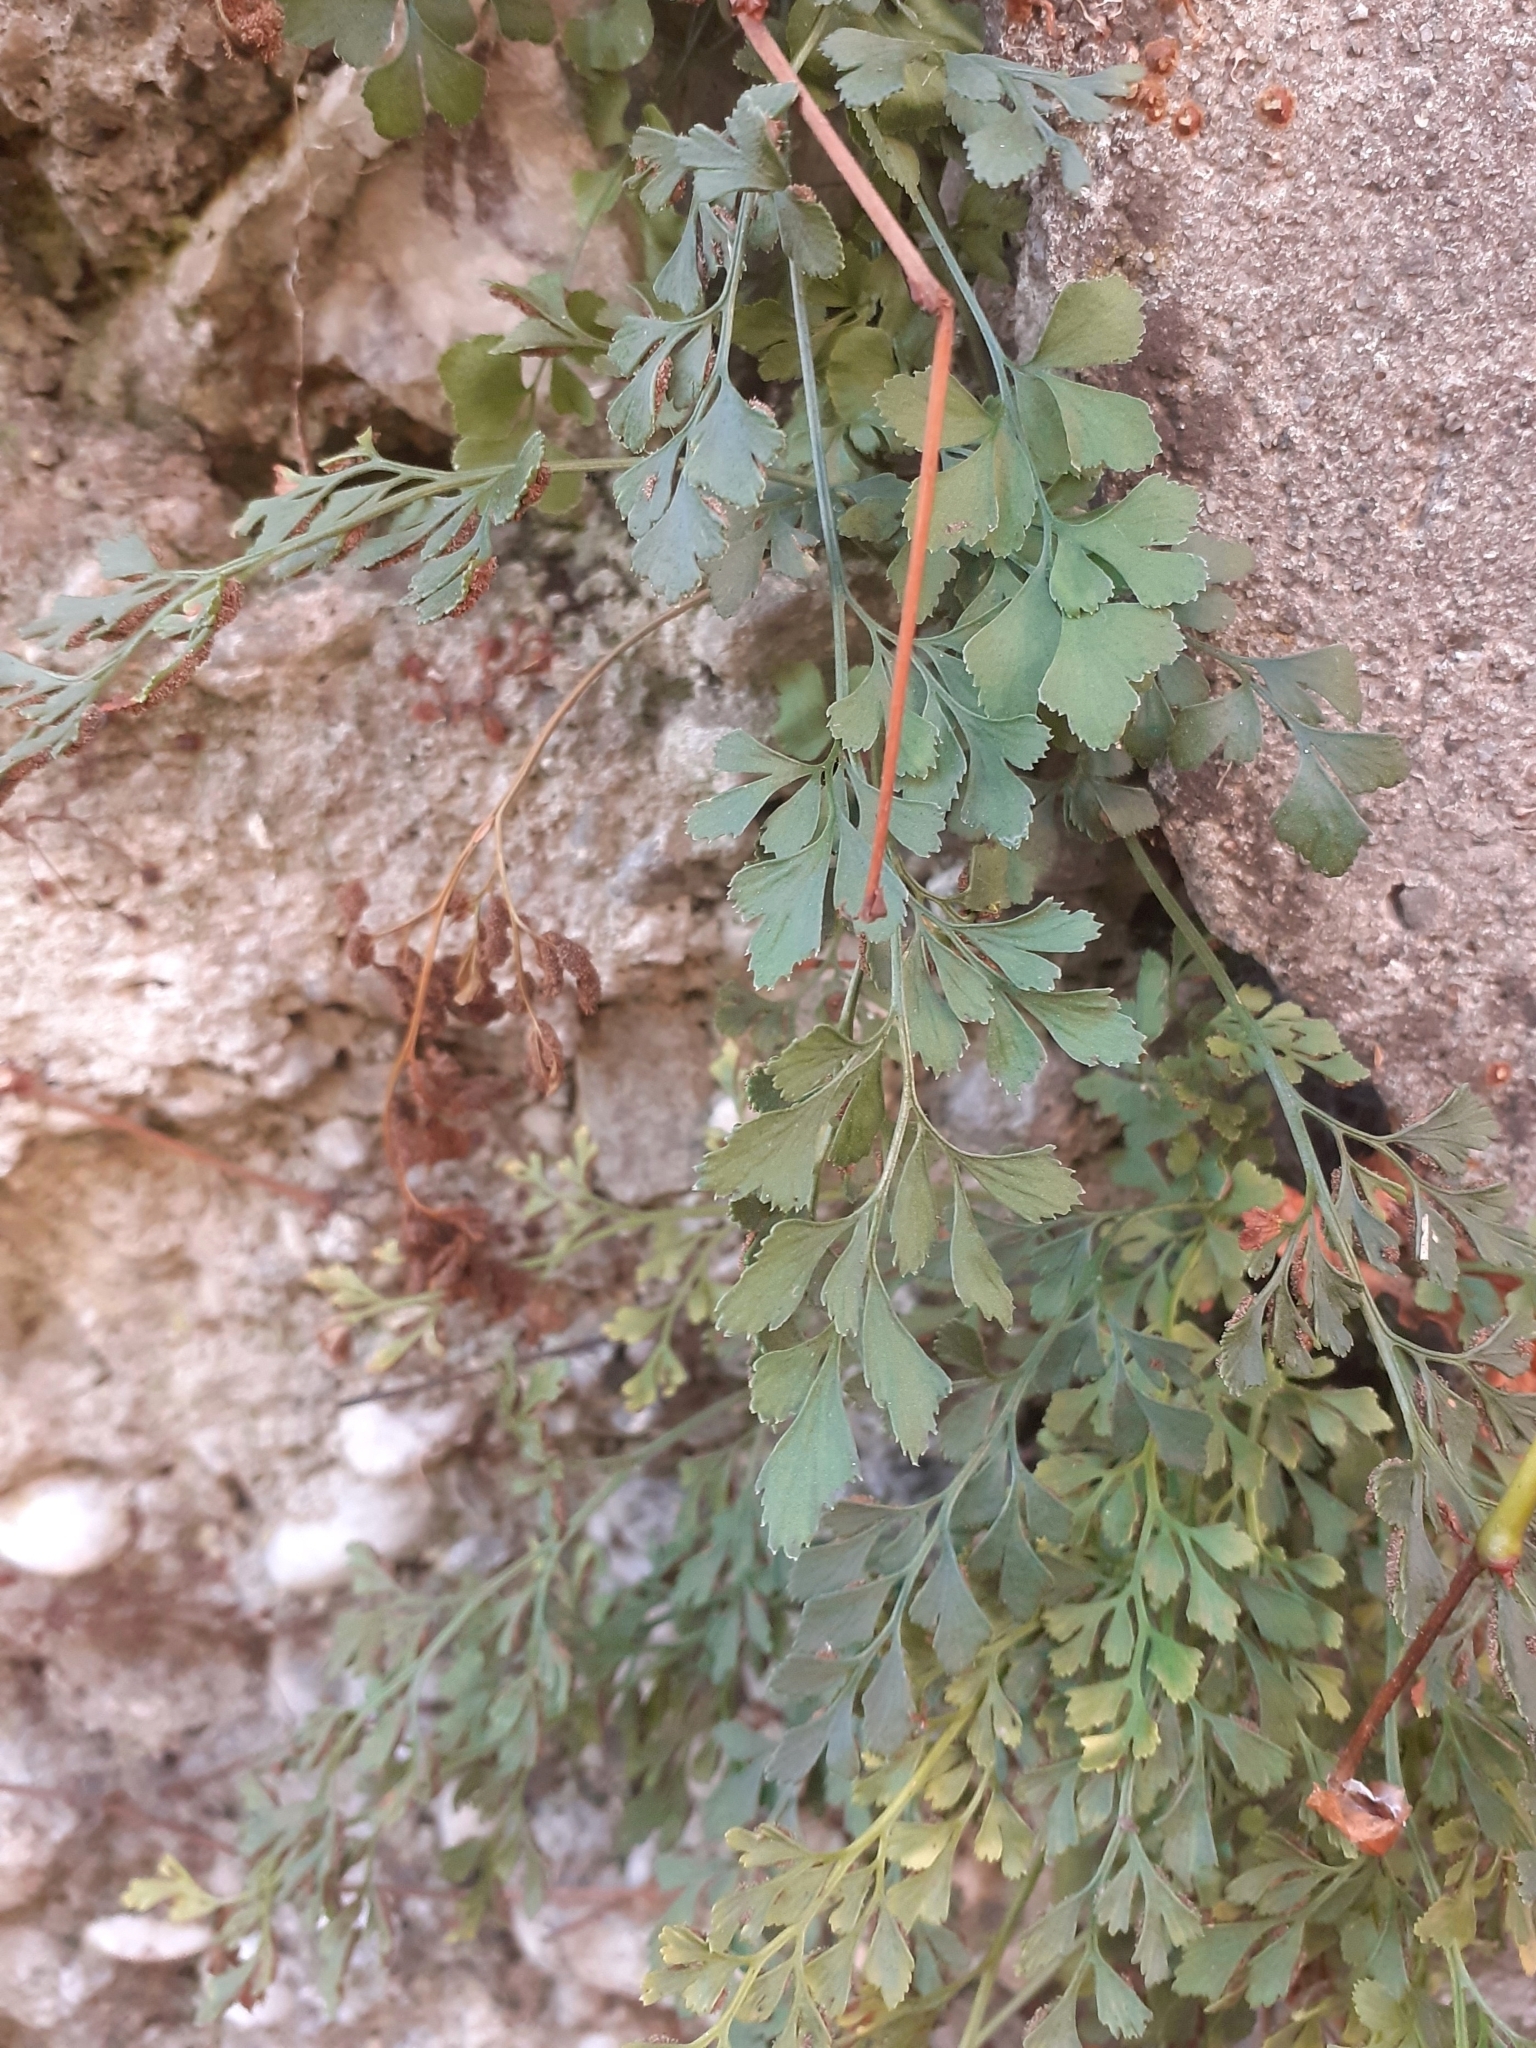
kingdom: Plantae
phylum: Tracheophyta
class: Polypodiopsida
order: Polypodiales
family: Aspleniaceae
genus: Asplenium
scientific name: Asplenium ruta-muraria
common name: Wall-rue
